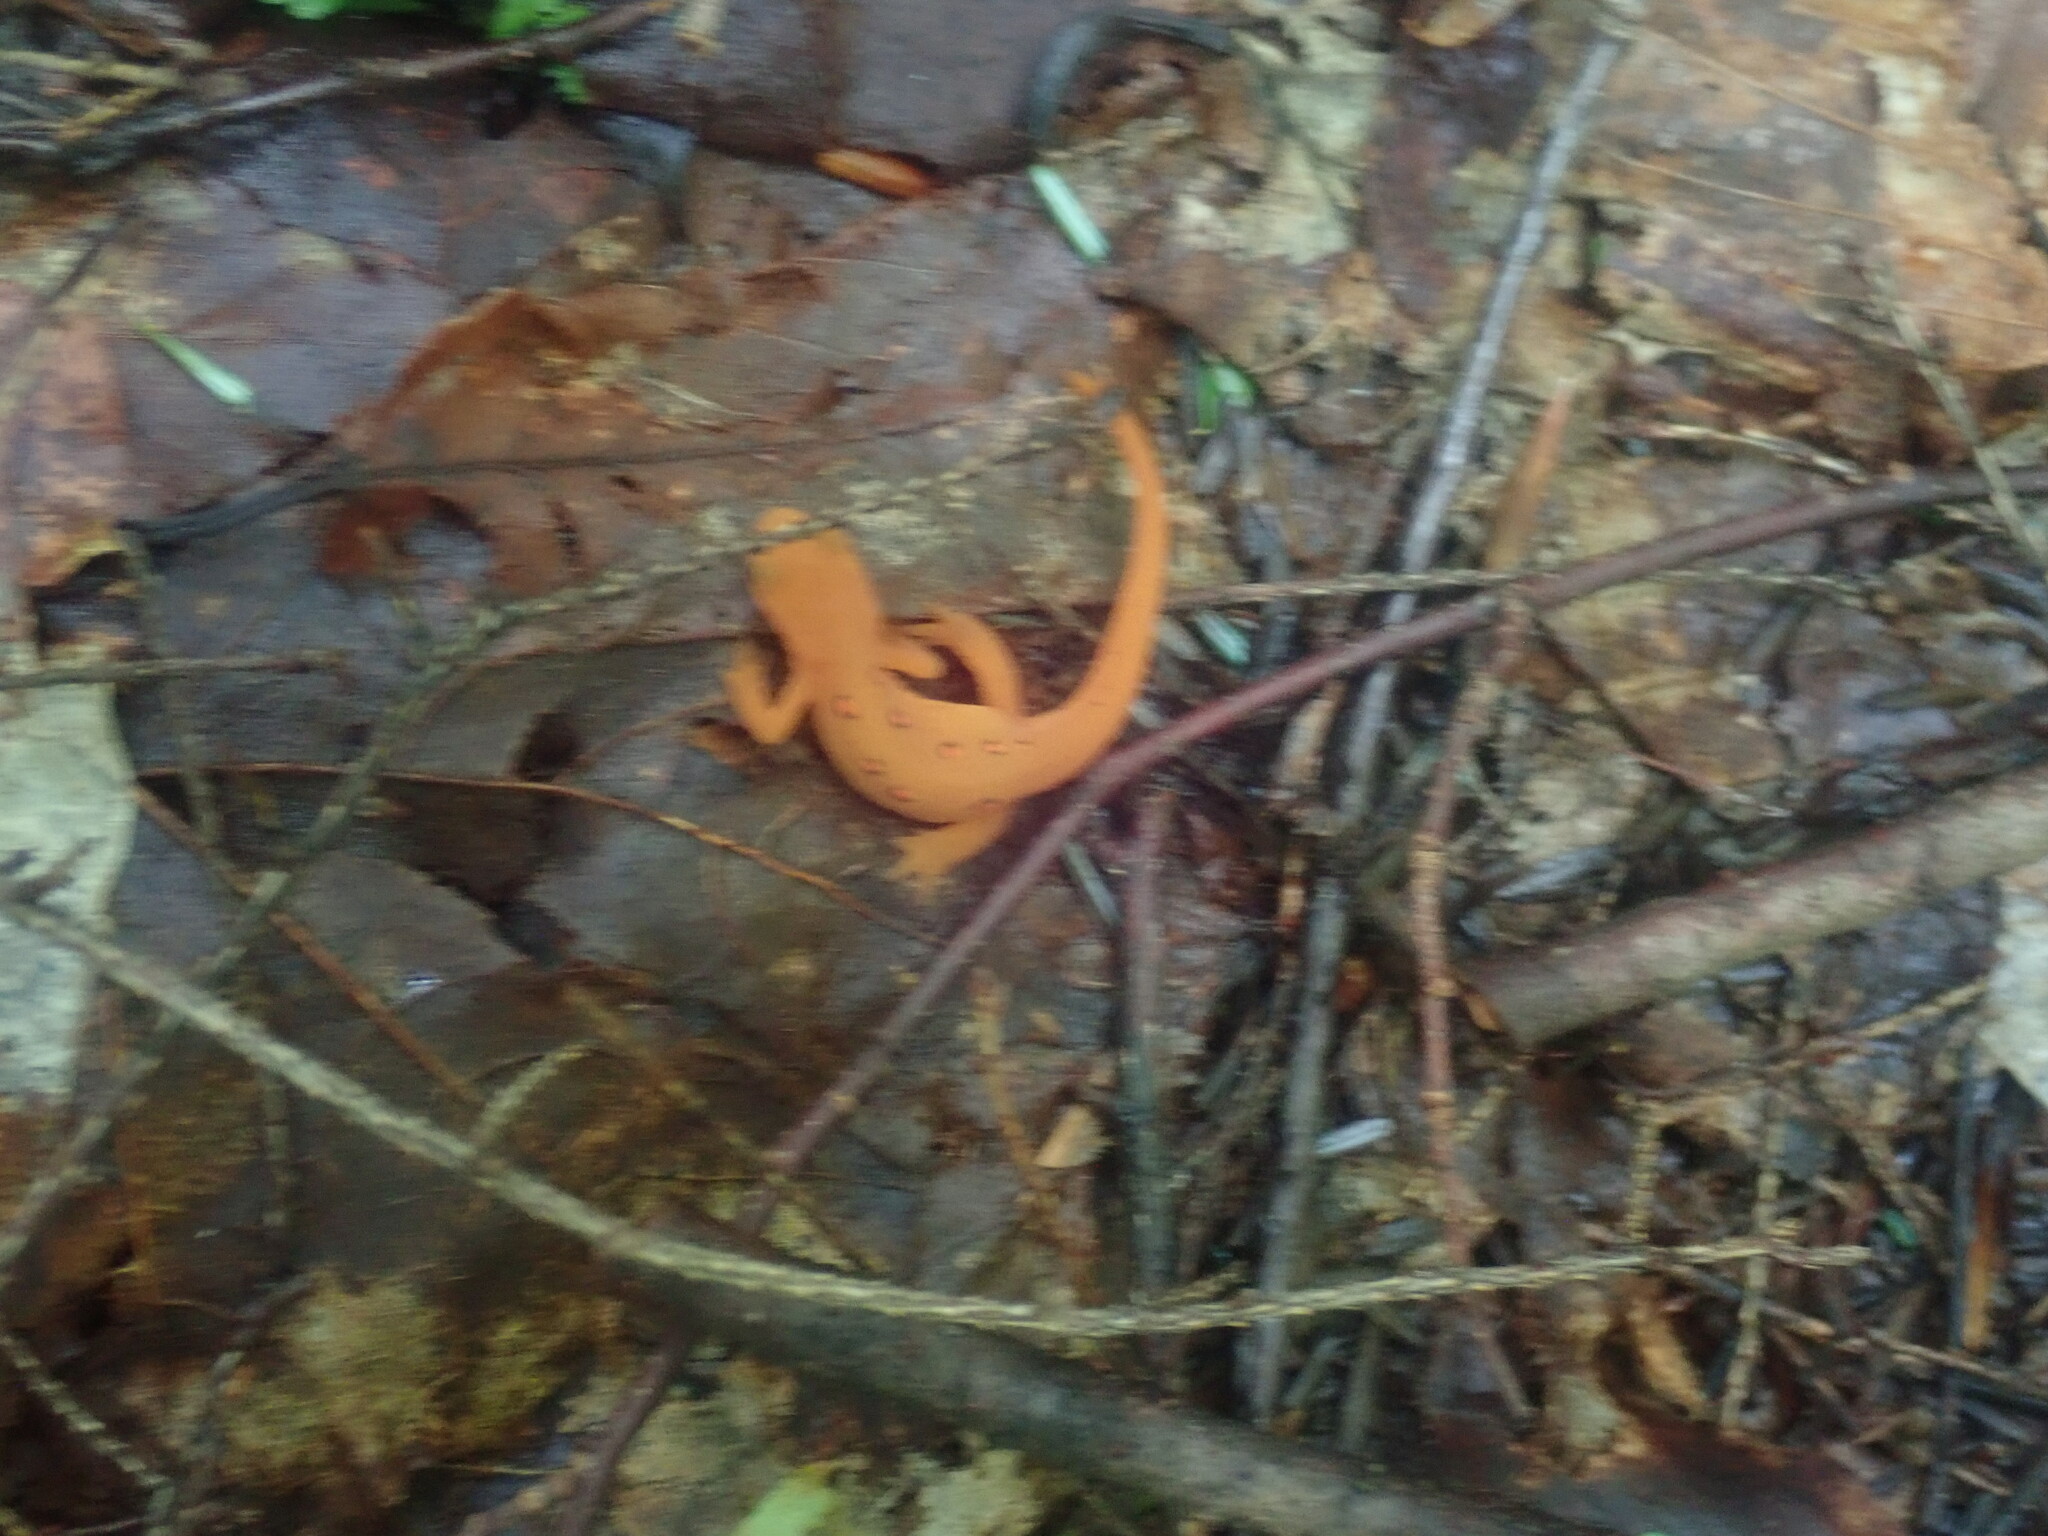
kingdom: Animalia
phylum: Chordata
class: Amphibia
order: Caudata
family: Salamandridae
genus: Notophthalmus
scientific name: Notophthalmus viridescens
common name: Eastern newt
